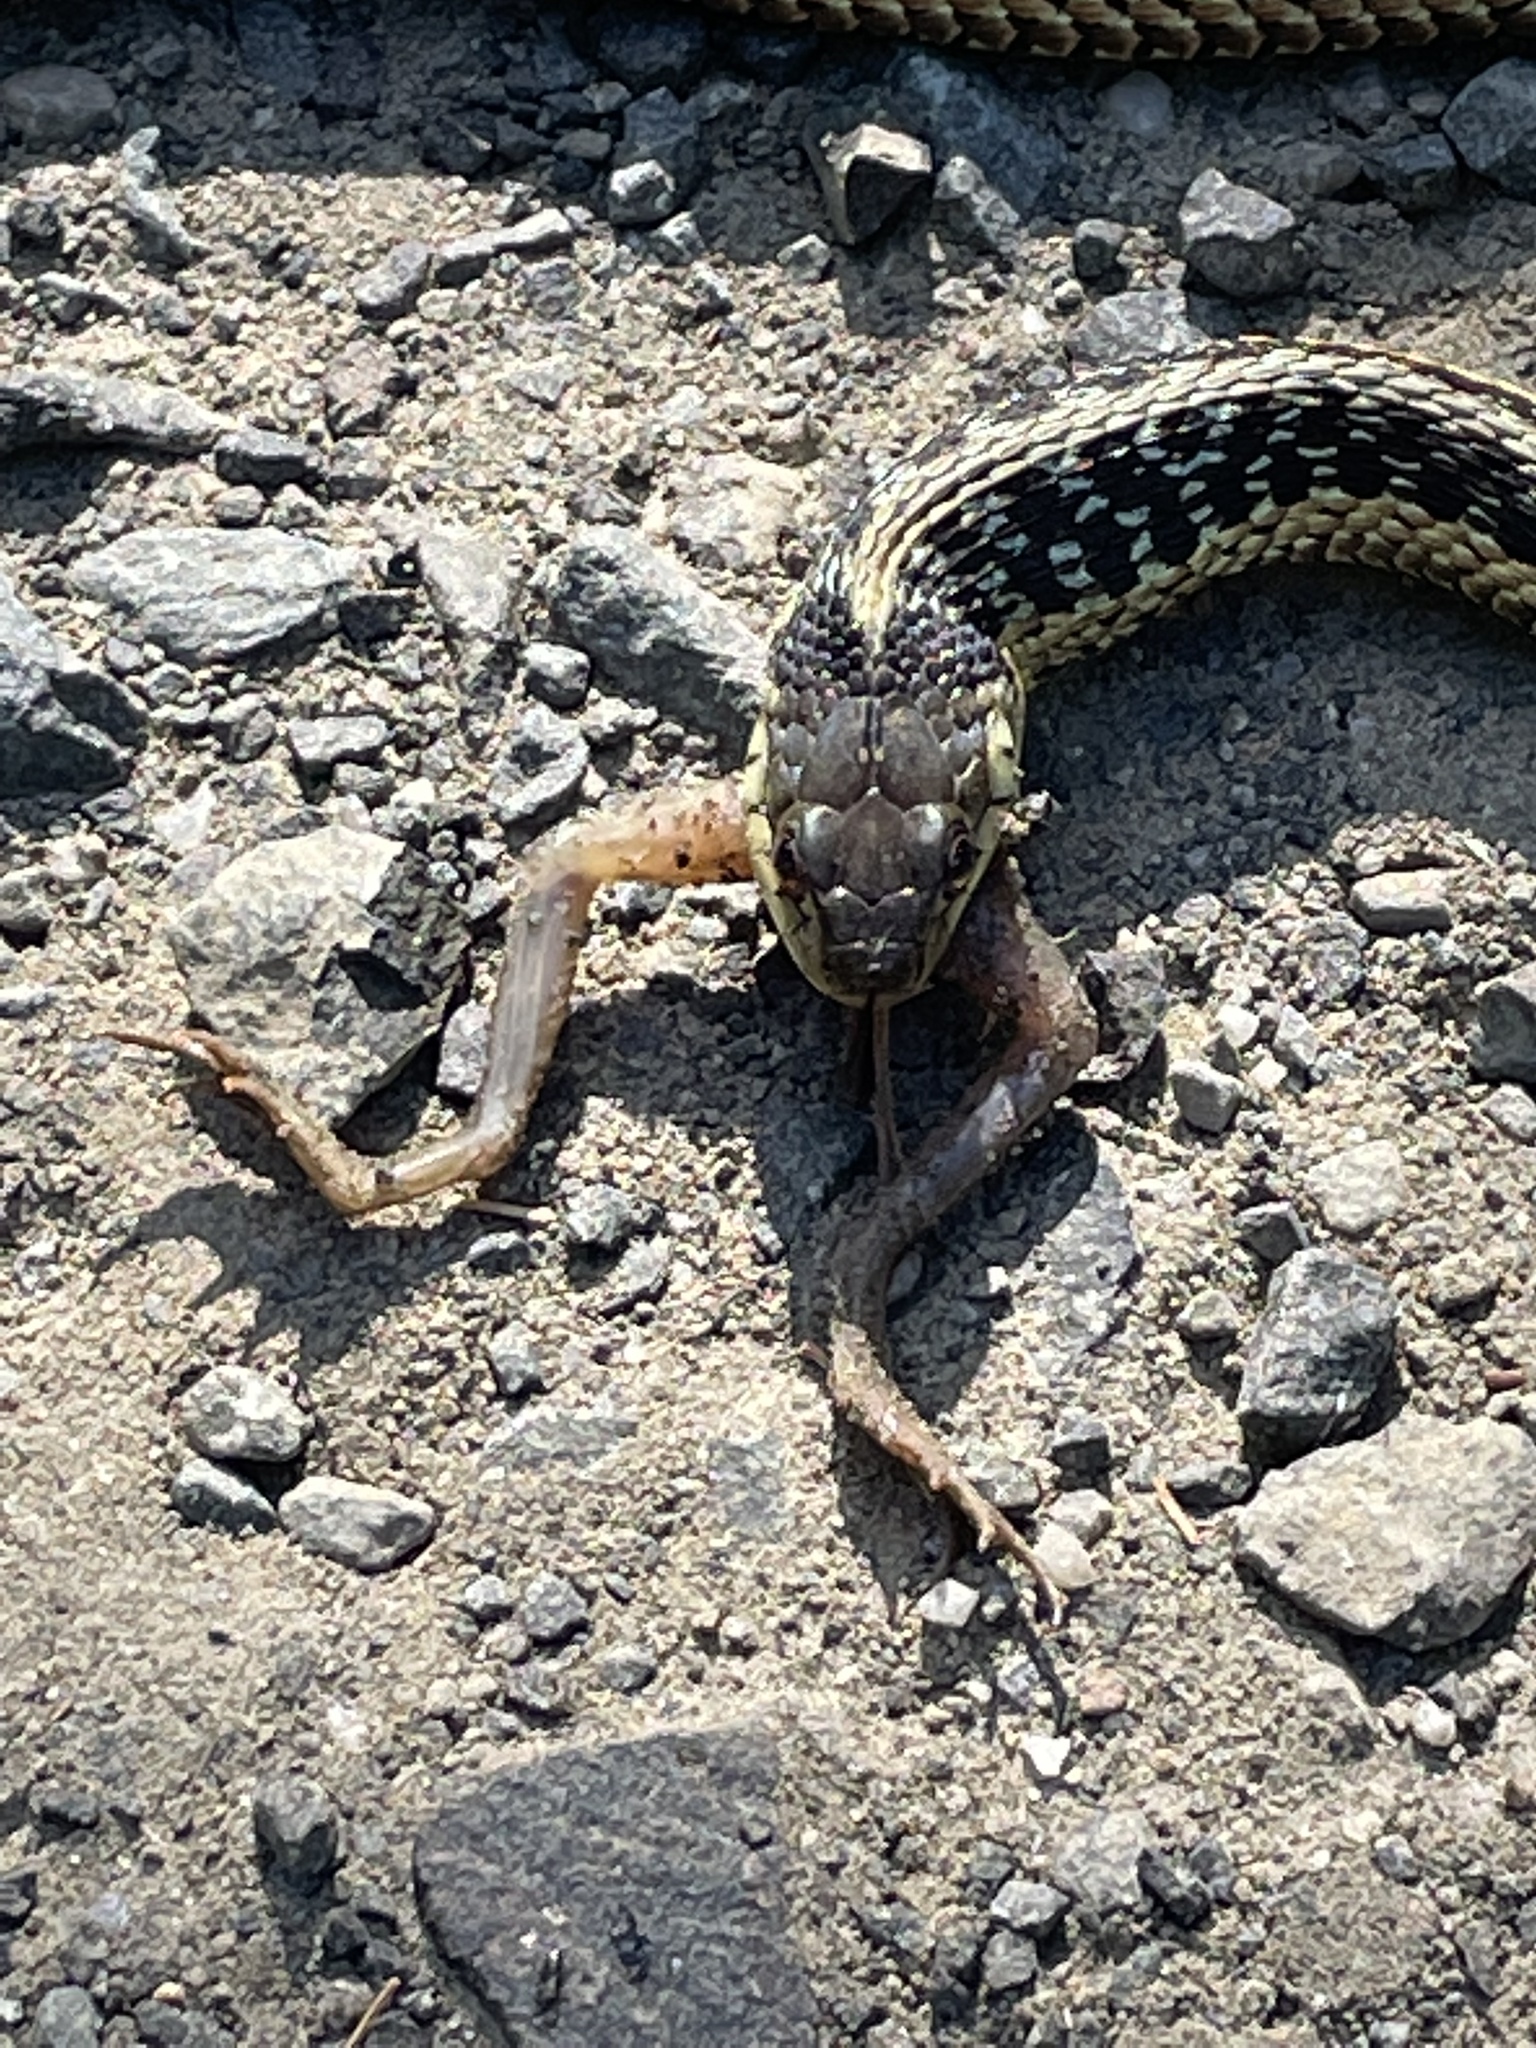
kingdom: Animalia
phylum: Chordata
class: Squamata
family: Colubridae
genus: Thamnophis
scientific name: Thamnophis sirtalis
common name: Common garter snake
